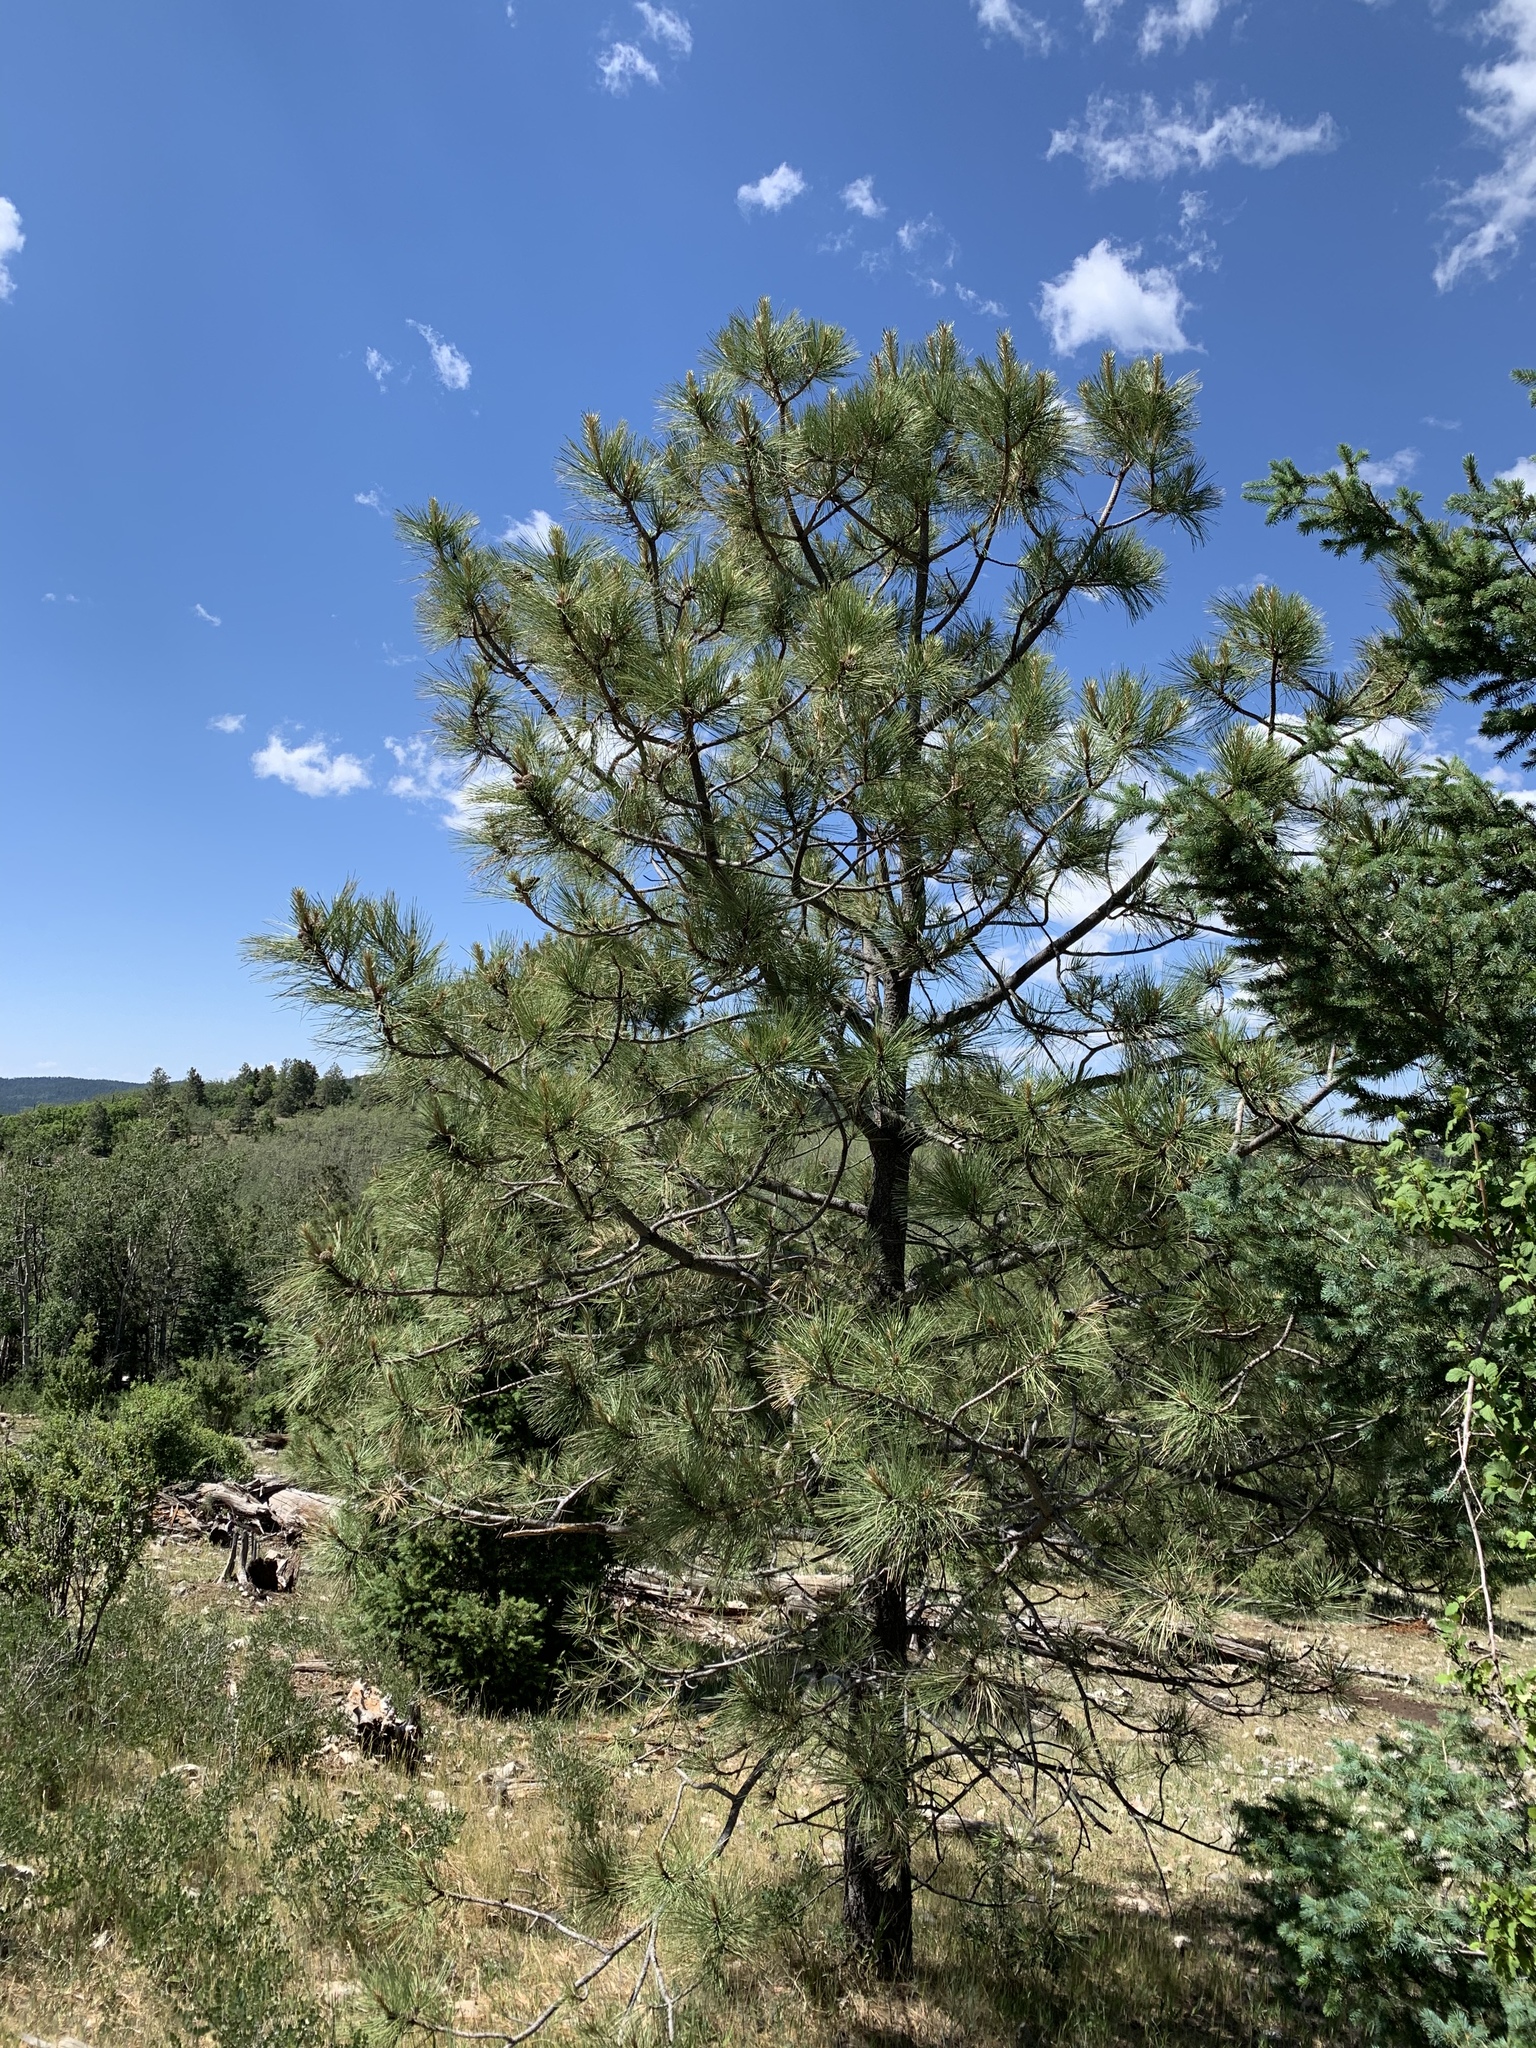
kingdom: Plantae
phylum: Tracheophyta
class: Pinopsida
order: Pinales
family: Pinaceae
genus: Pinus
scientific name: Pinus ponderosa
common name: Western yellow-pine
